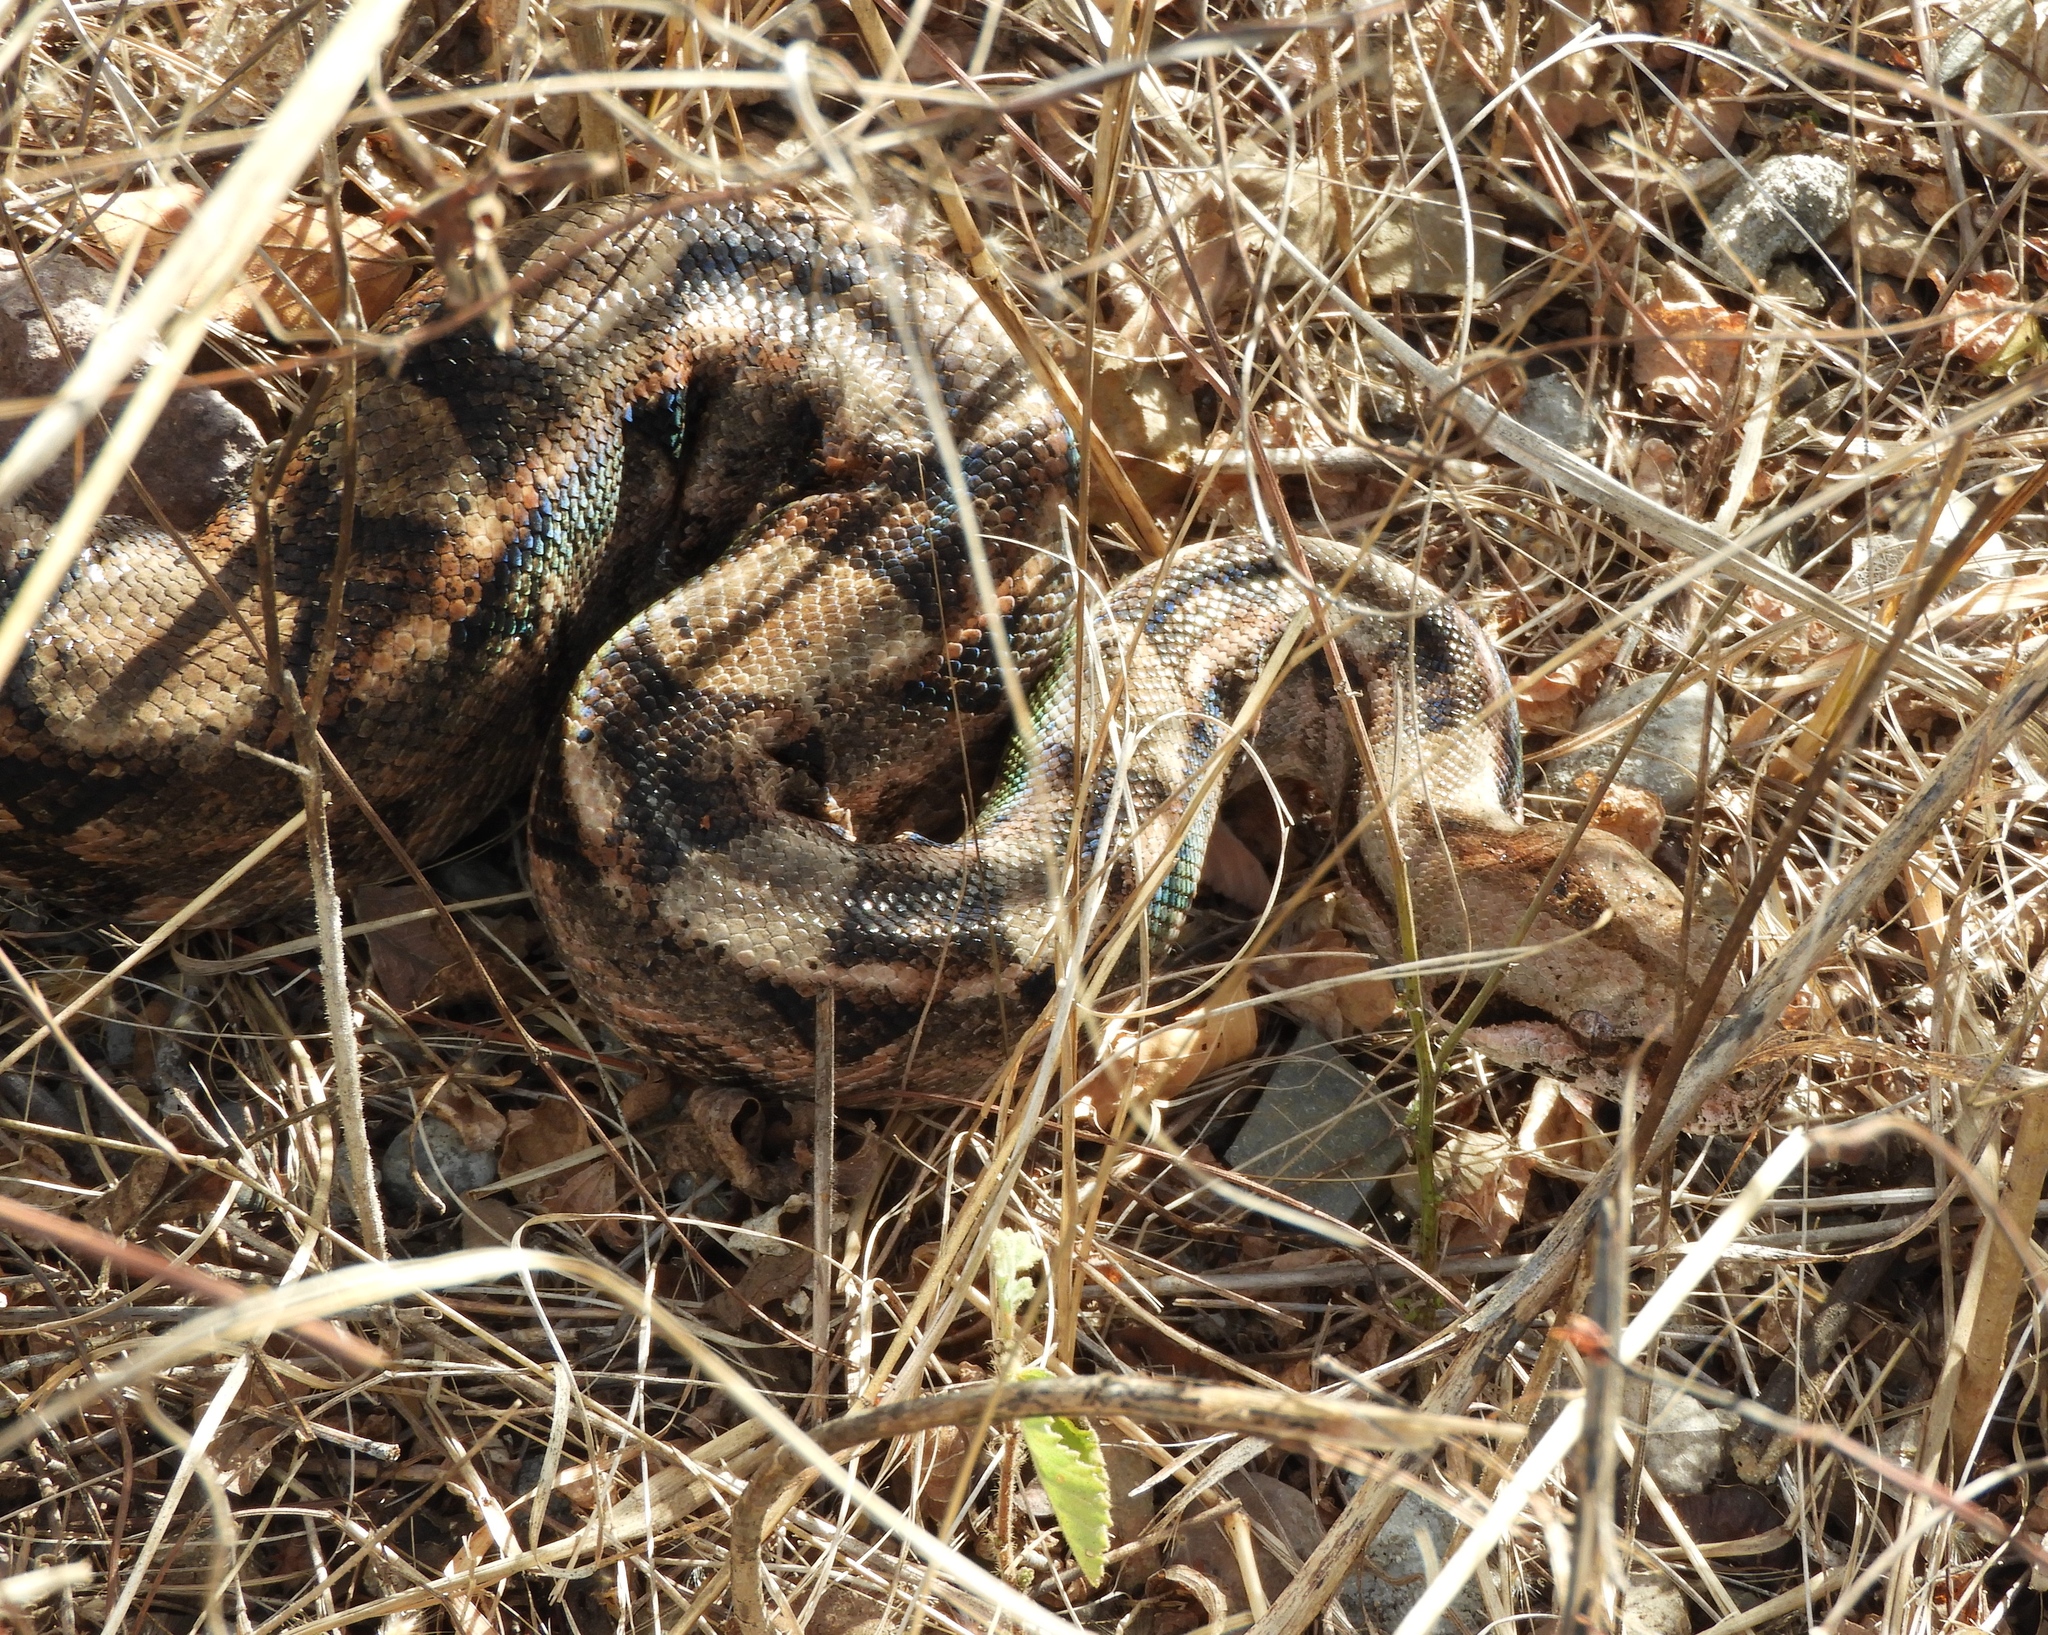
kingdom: Animalia
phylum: Chordata
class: Squamata
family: Boidae
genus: Boa
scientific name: Boa
